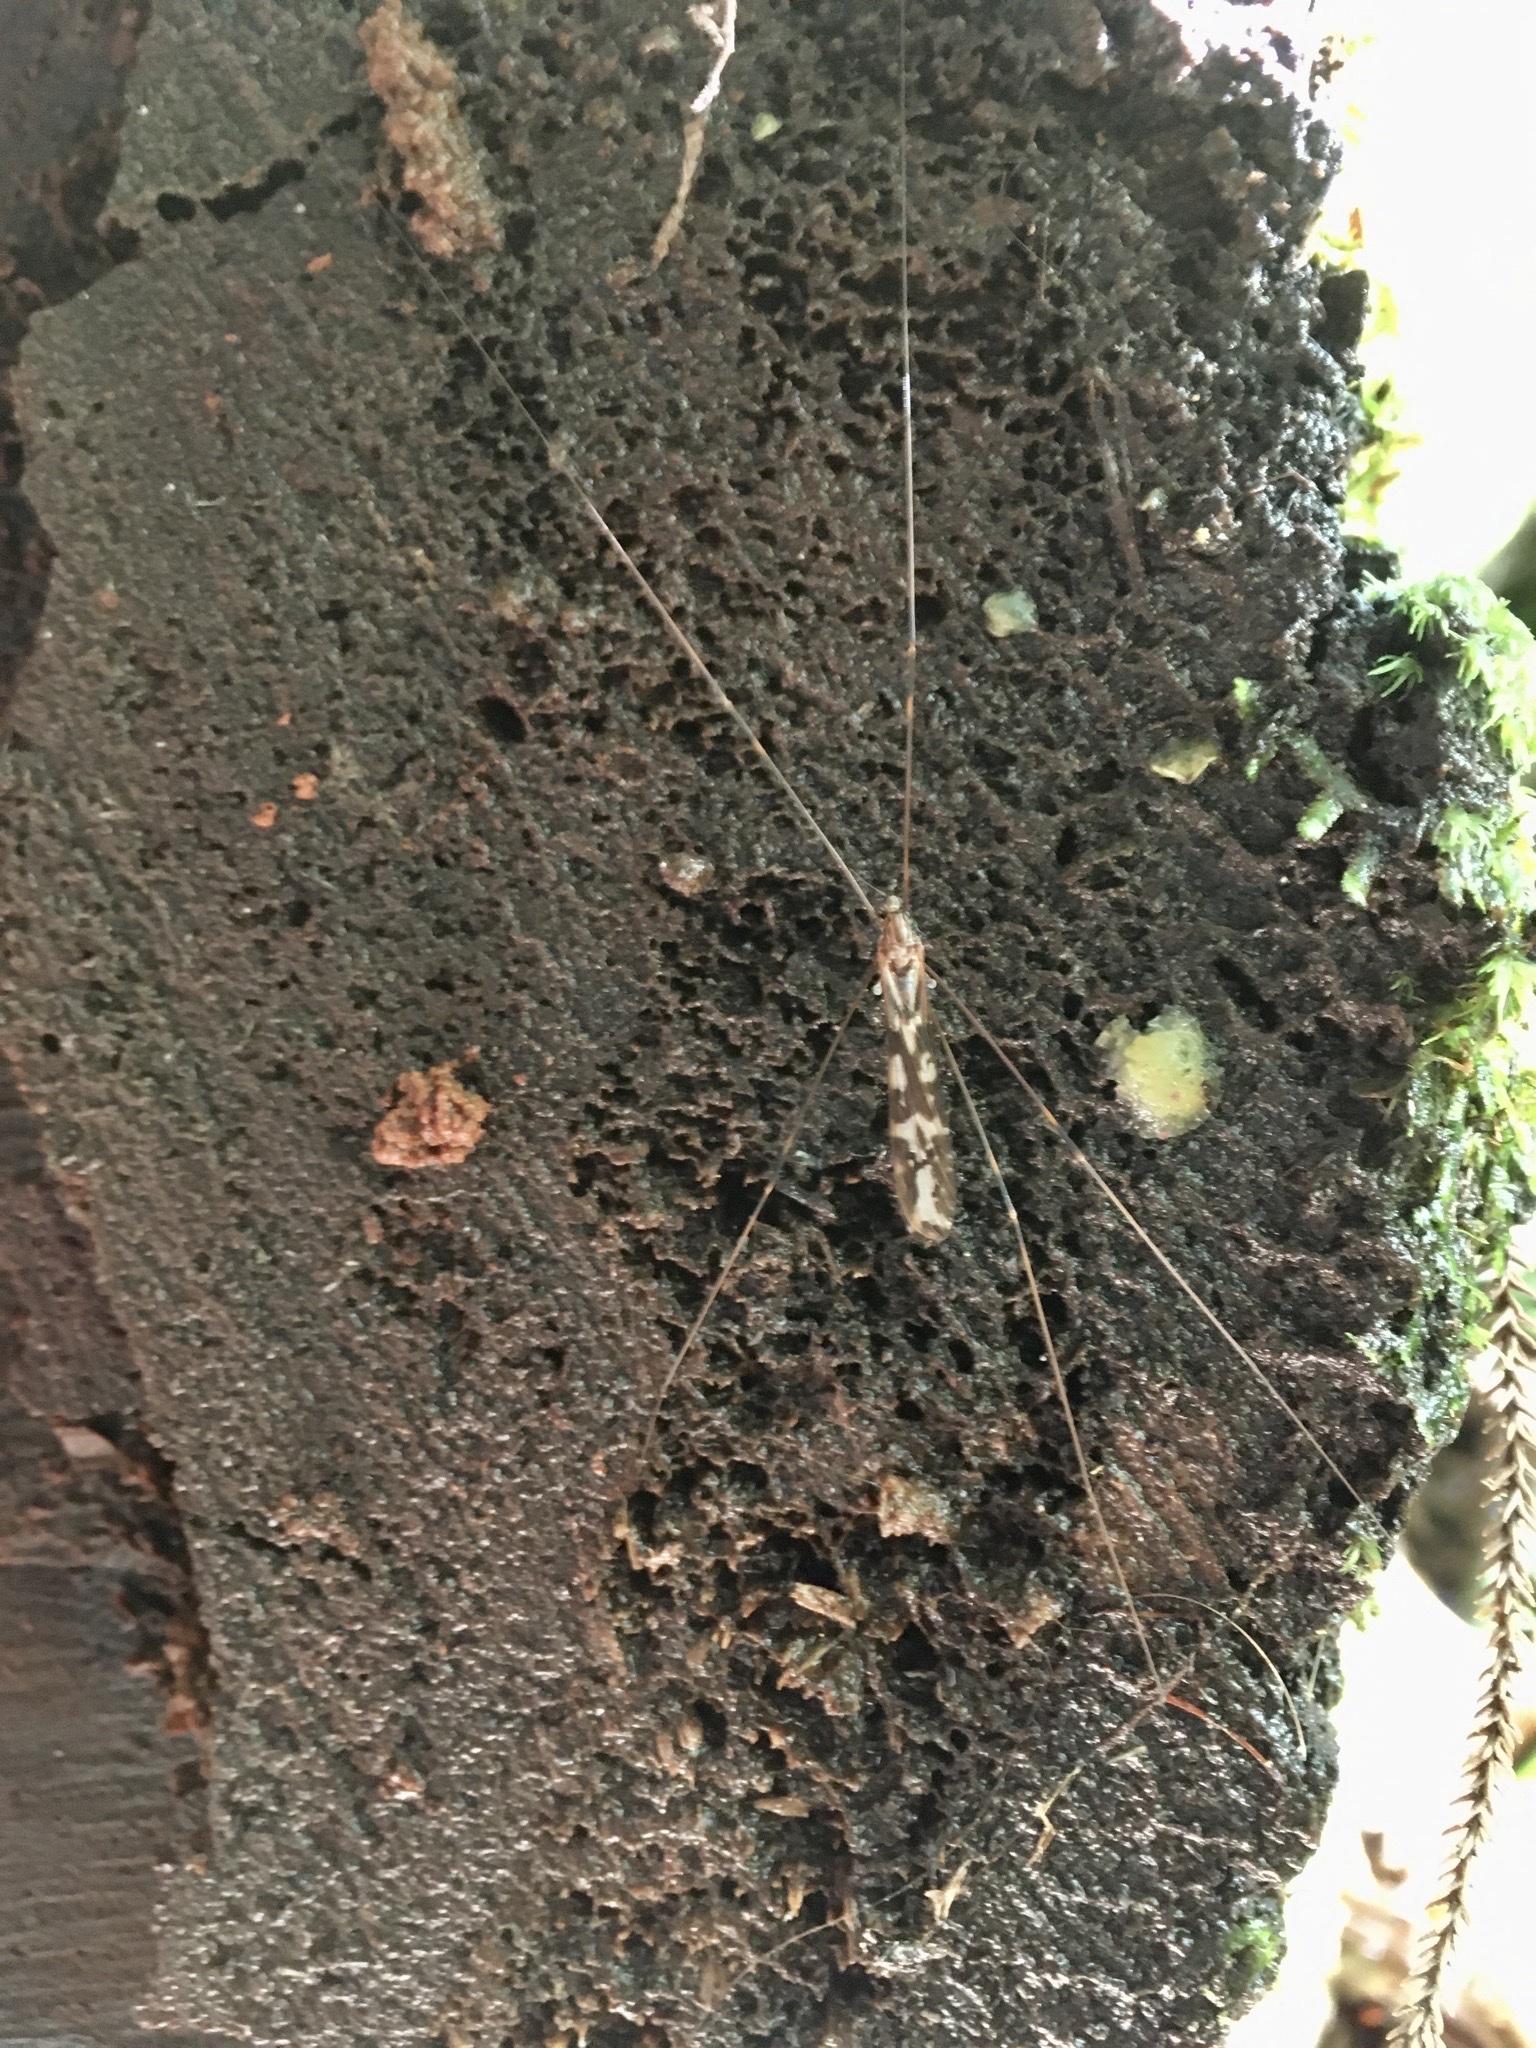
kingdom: Animalia
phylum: Arthropoda
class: Insecta
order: Diptera
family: Limoniidae
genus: Discobola
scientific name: Discobola dohrni
